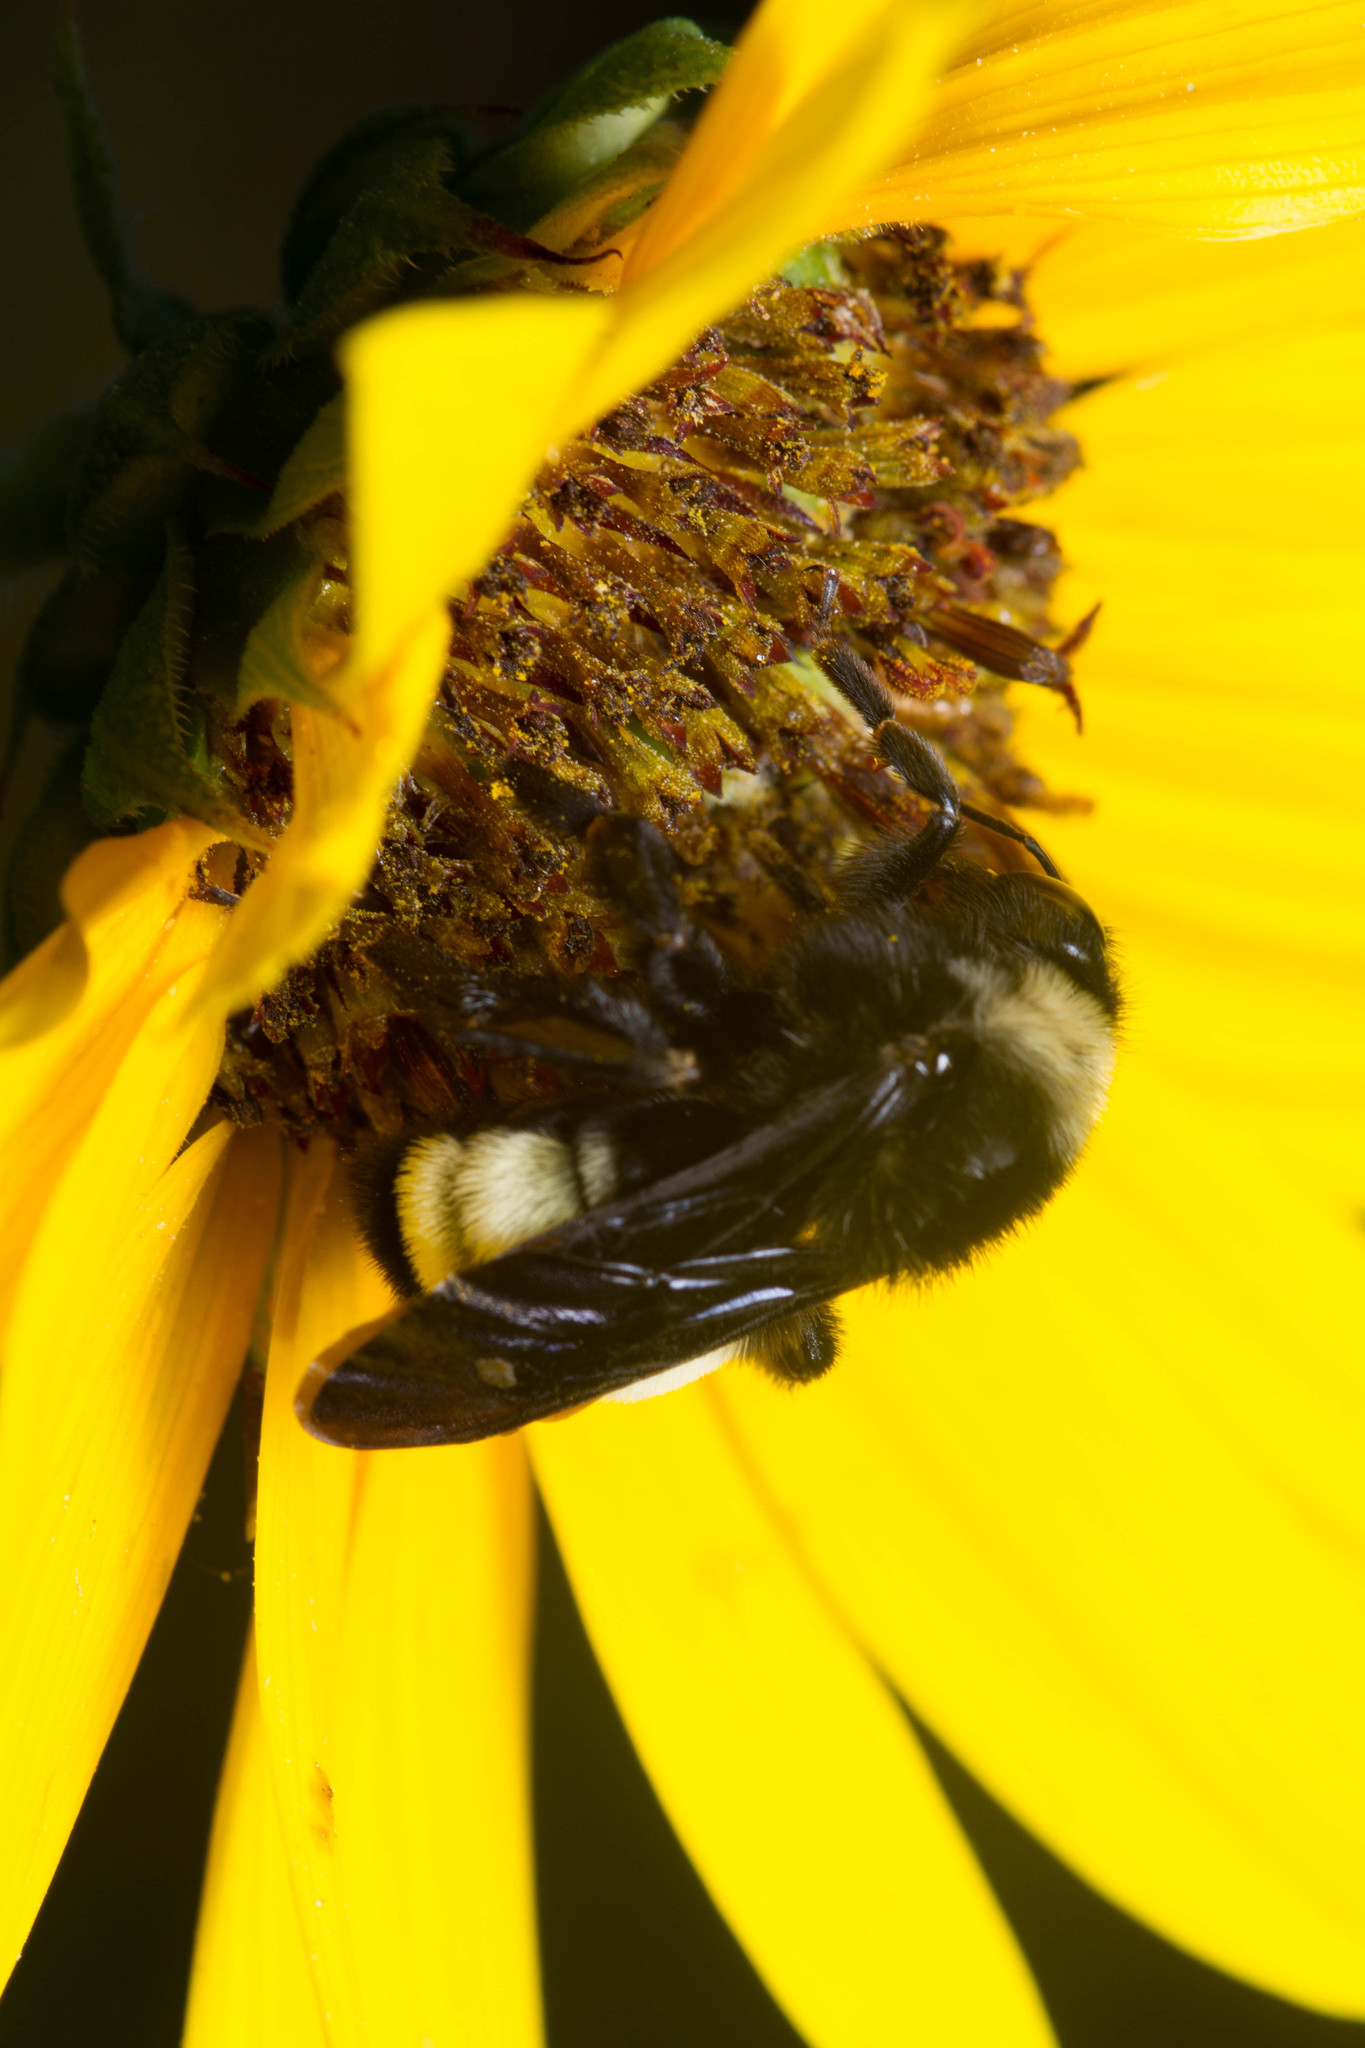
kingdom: Animalia
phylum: Arthropoda
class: Insecta
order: Hymenoptera
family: Apidae
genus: Bombus
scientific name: Bombus pensylvanicus
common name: Bumble bee
